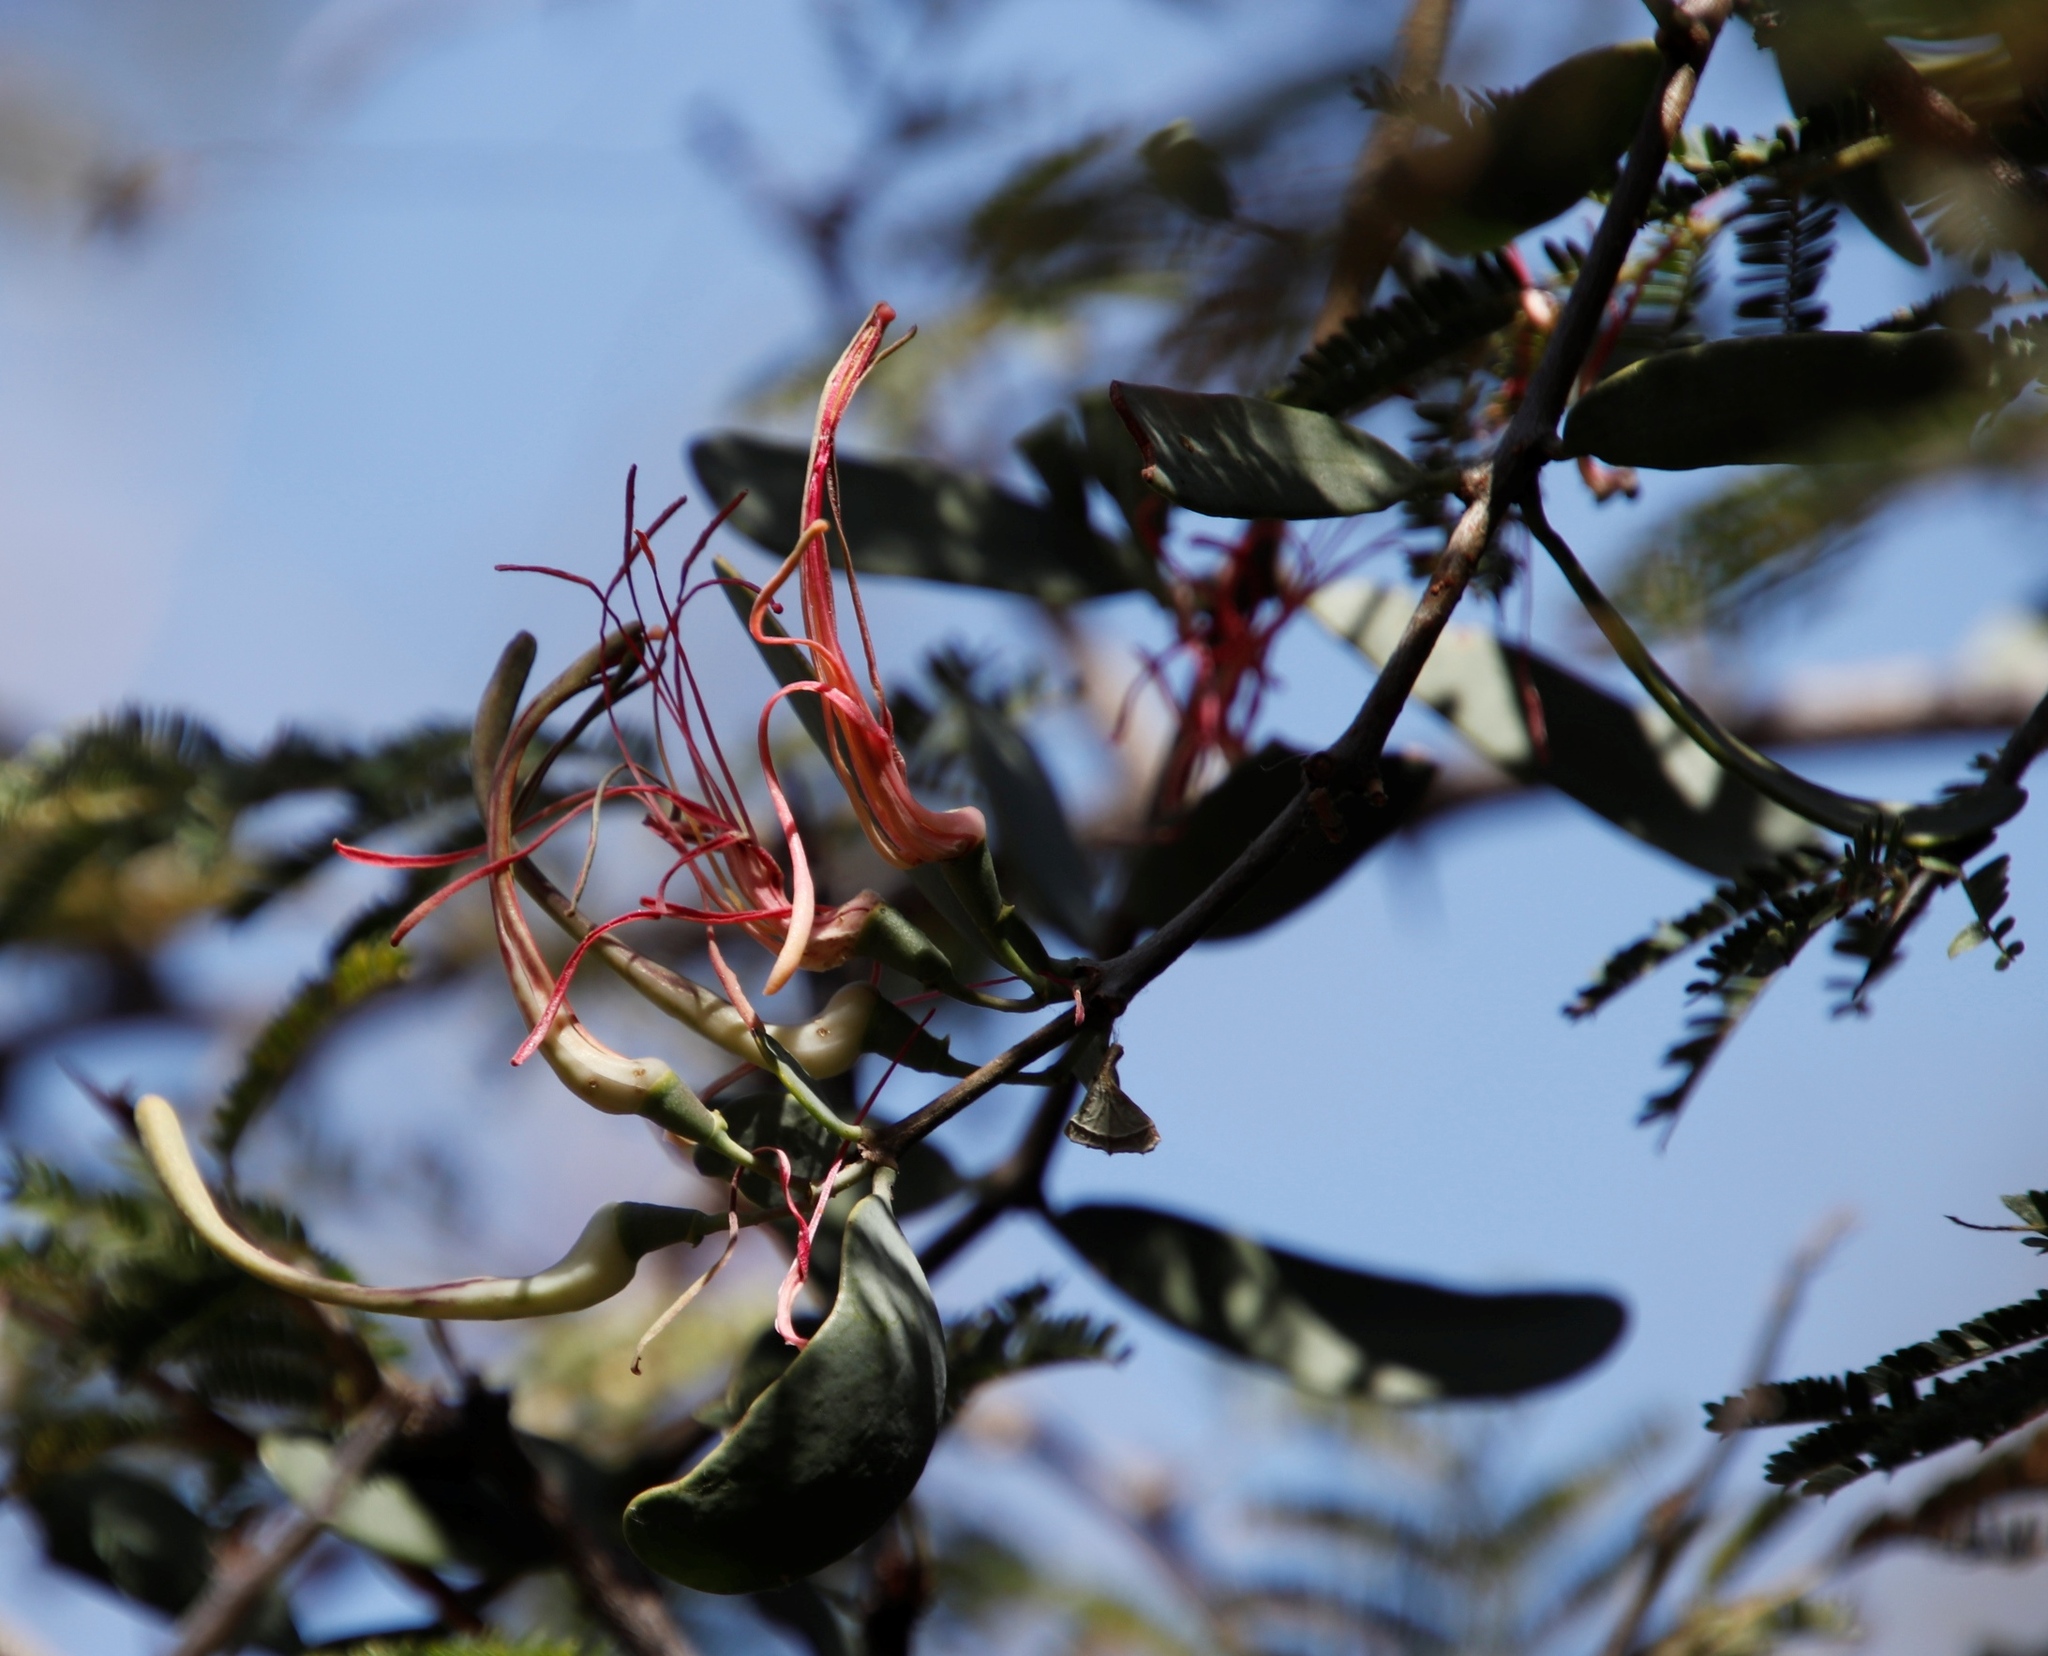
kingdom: Plantae
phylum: Tracheophyta
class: Magnoliopsida
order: Santalales
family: Loranthaceae
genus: Plicosepalus
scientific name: Plicosepalus kalachariensis
